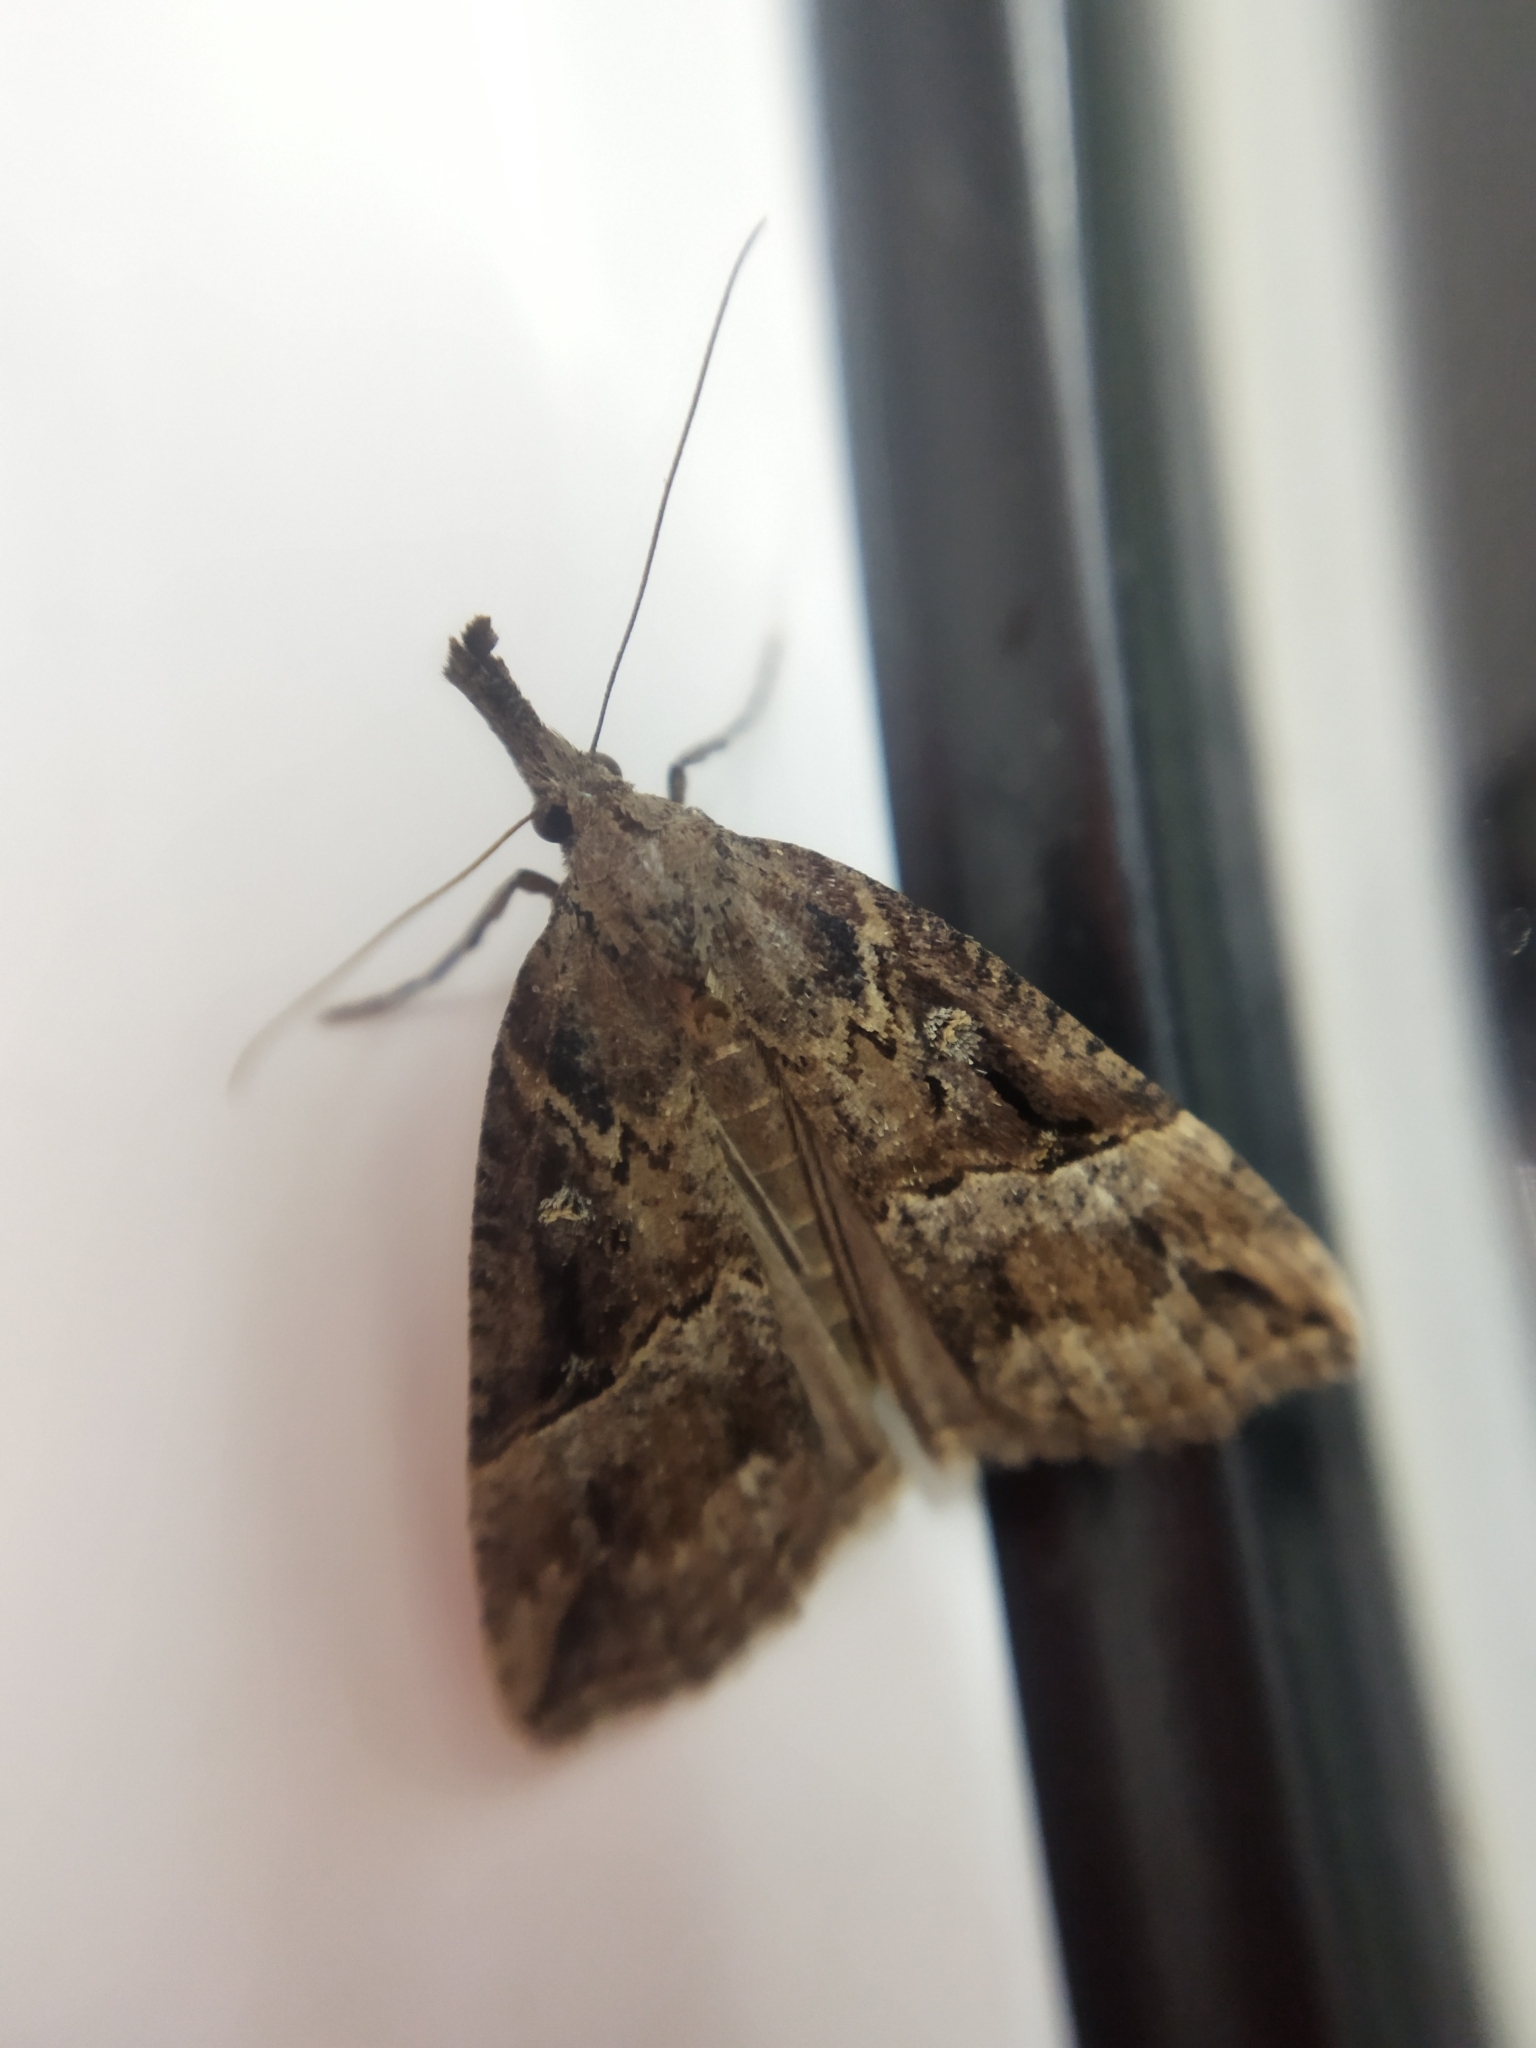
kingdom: Animalia
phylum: Arthropoda
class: Insecta
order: Lepidoptera
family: Erebidae
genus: Hypena
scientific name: Hypena rostralis
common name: Buttoned snout
